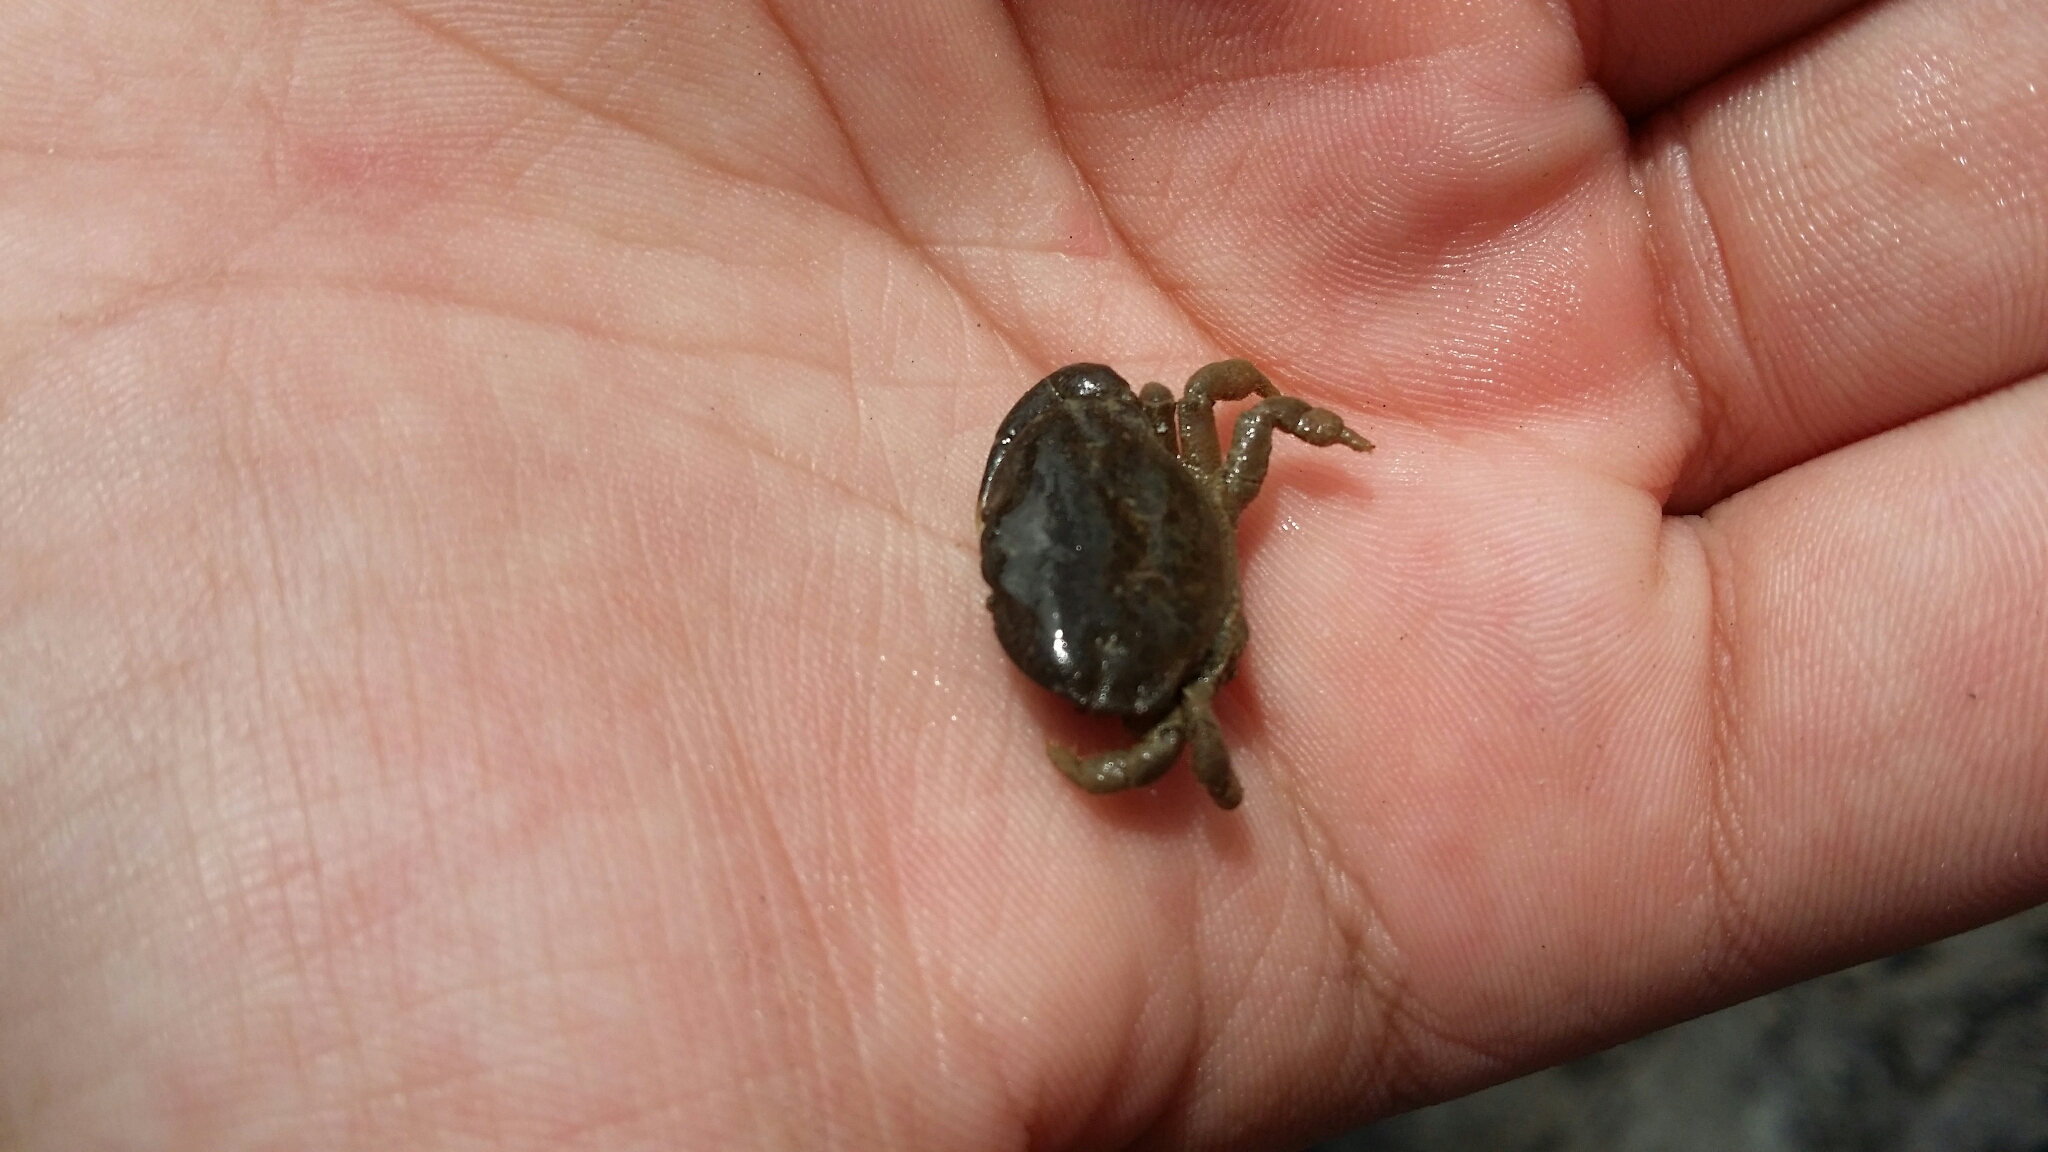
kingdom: Animalia
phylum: Arthropoda
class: Malacostraca
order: Decapoda
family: Heteroziidae
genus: Heterozius
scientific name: Heterozius rotundifrons
